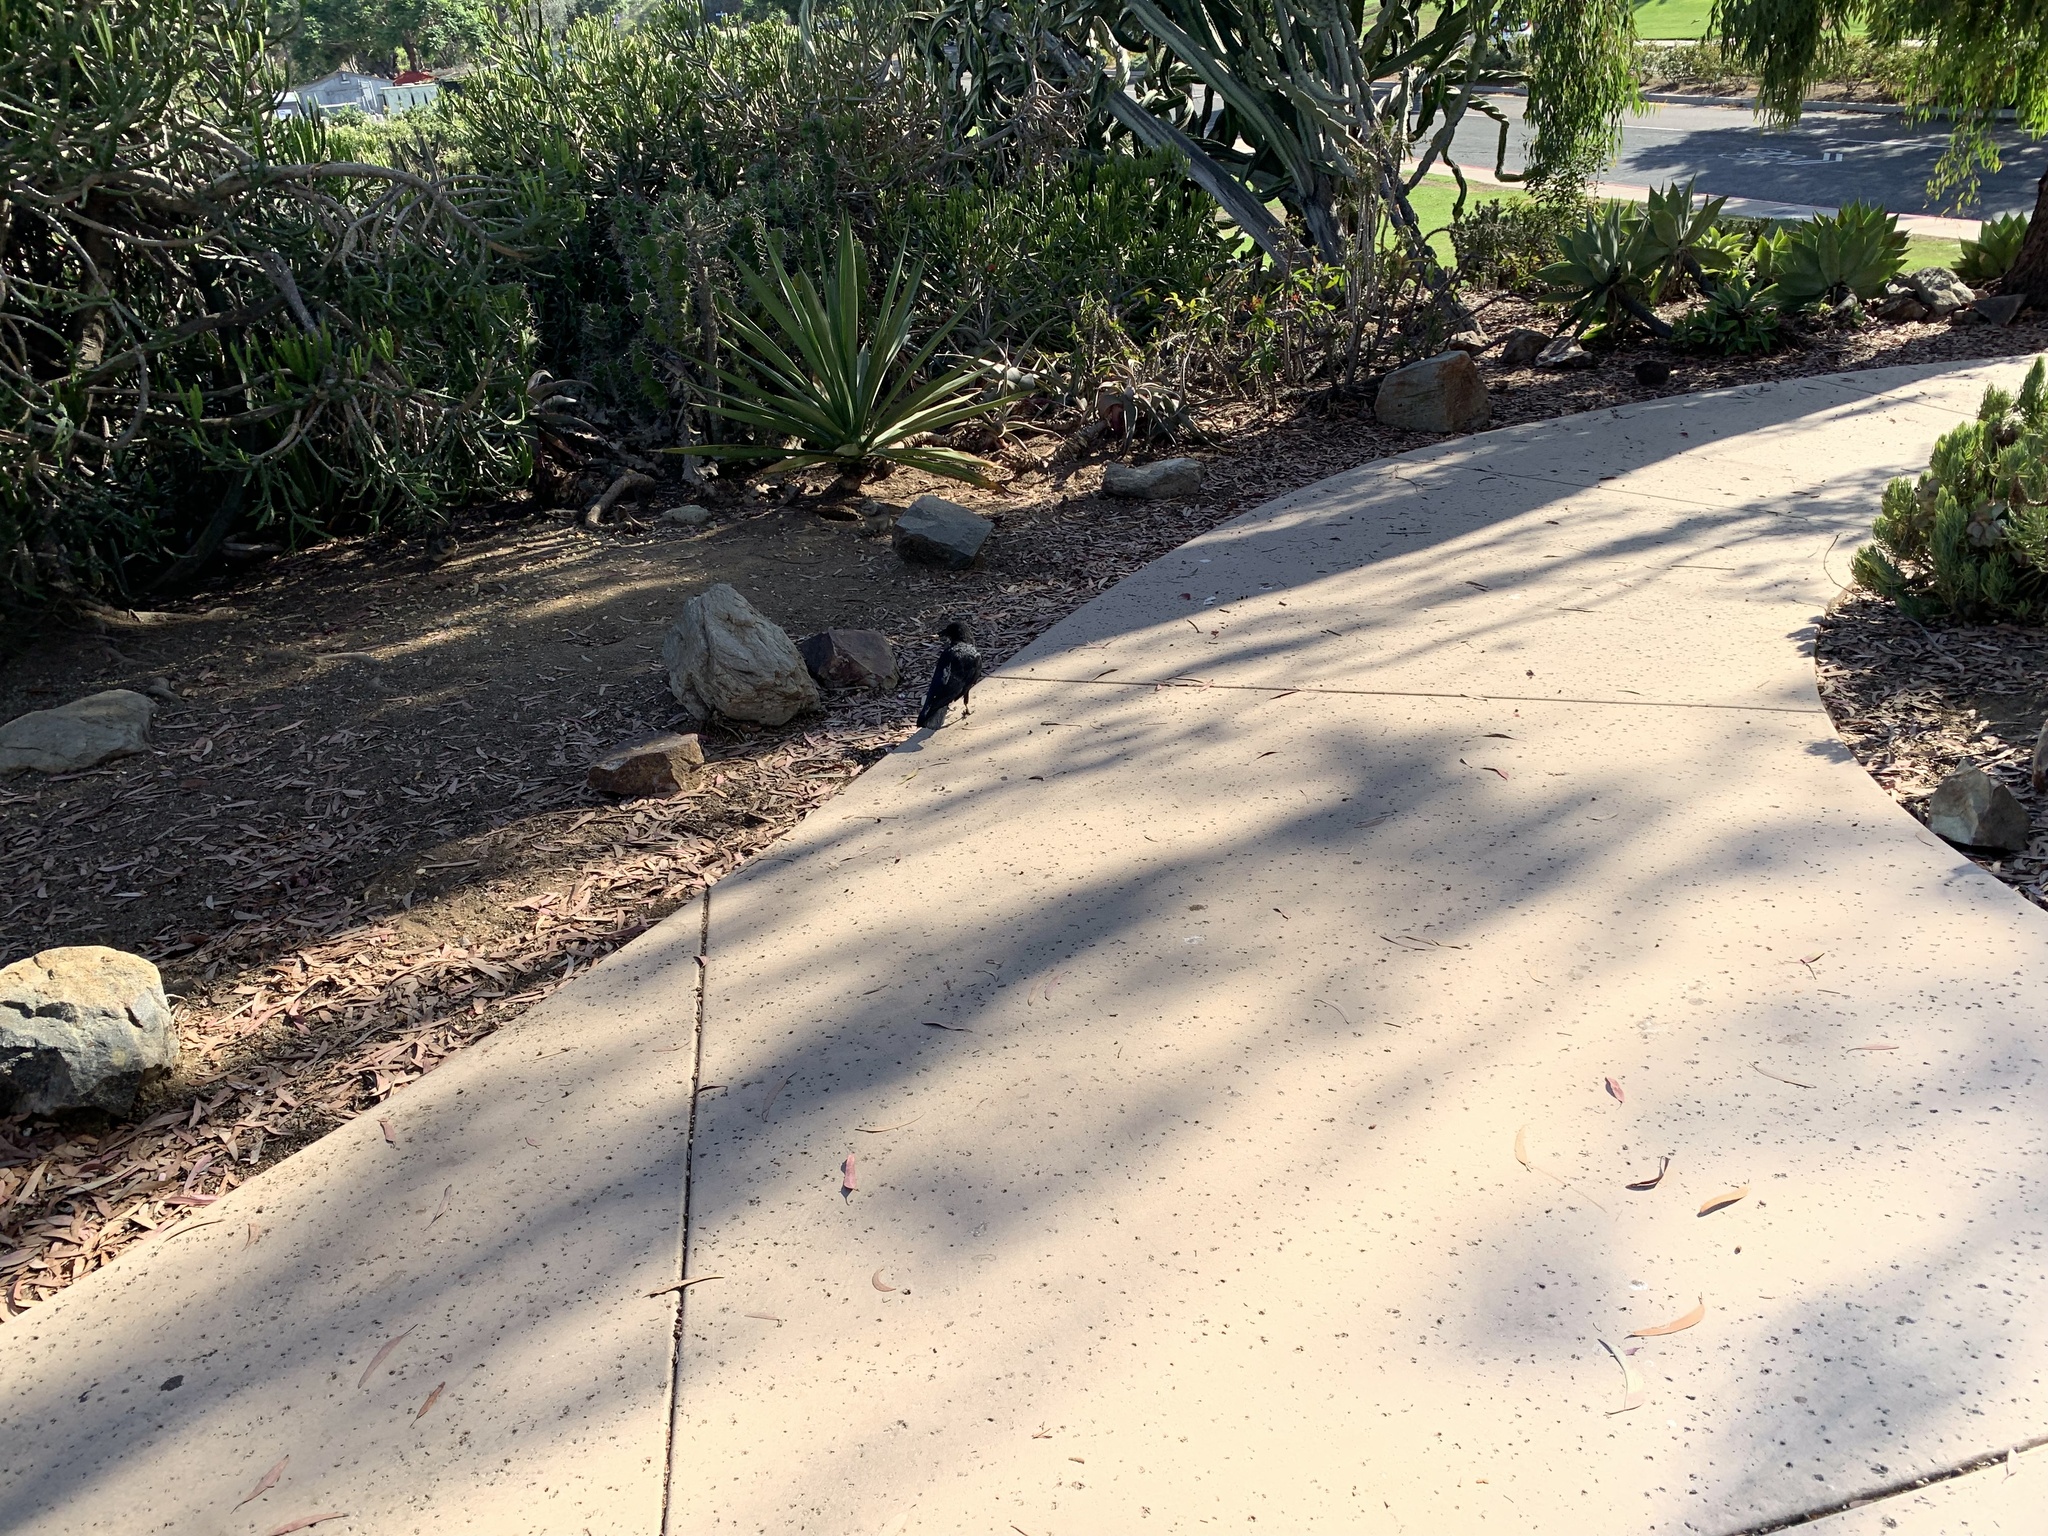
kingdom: Animalia
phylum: Chordata
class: Aves
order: Passeriformes
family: Corvidae
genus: Corvus
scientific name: Corvus brachyrhynchos
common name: American crow
